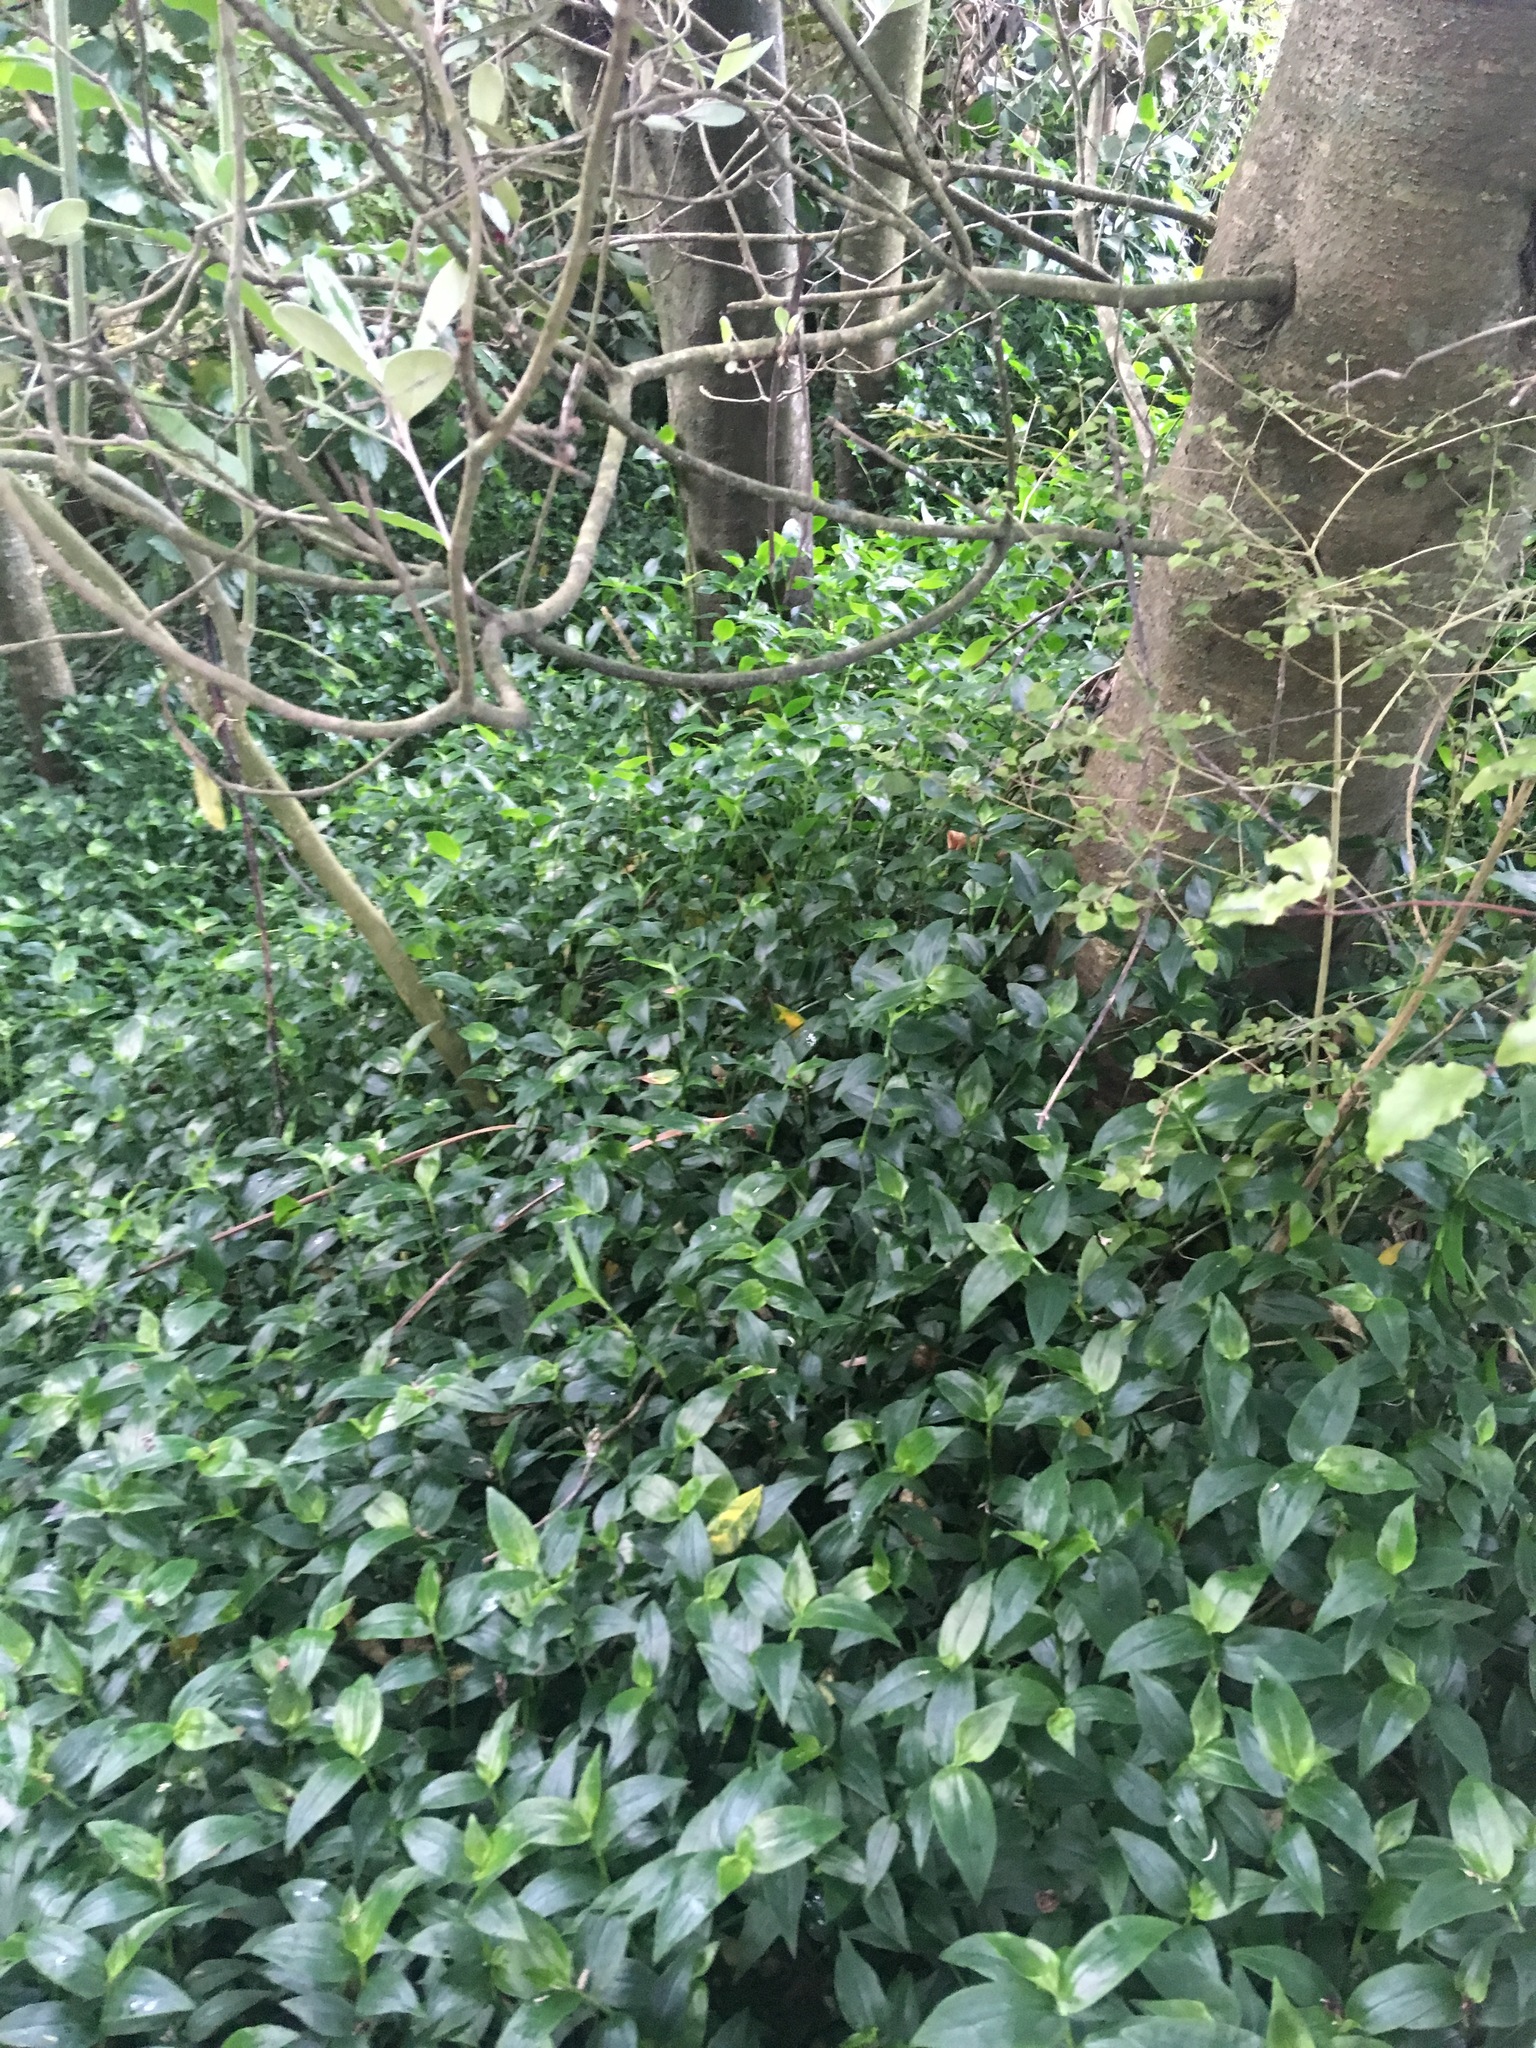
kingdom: Plantae
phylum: Tracheophyta
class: Magnoliopsida
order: Gentianales
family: Rubiaceae
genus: Coprosma
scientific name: Coprosma areolata
